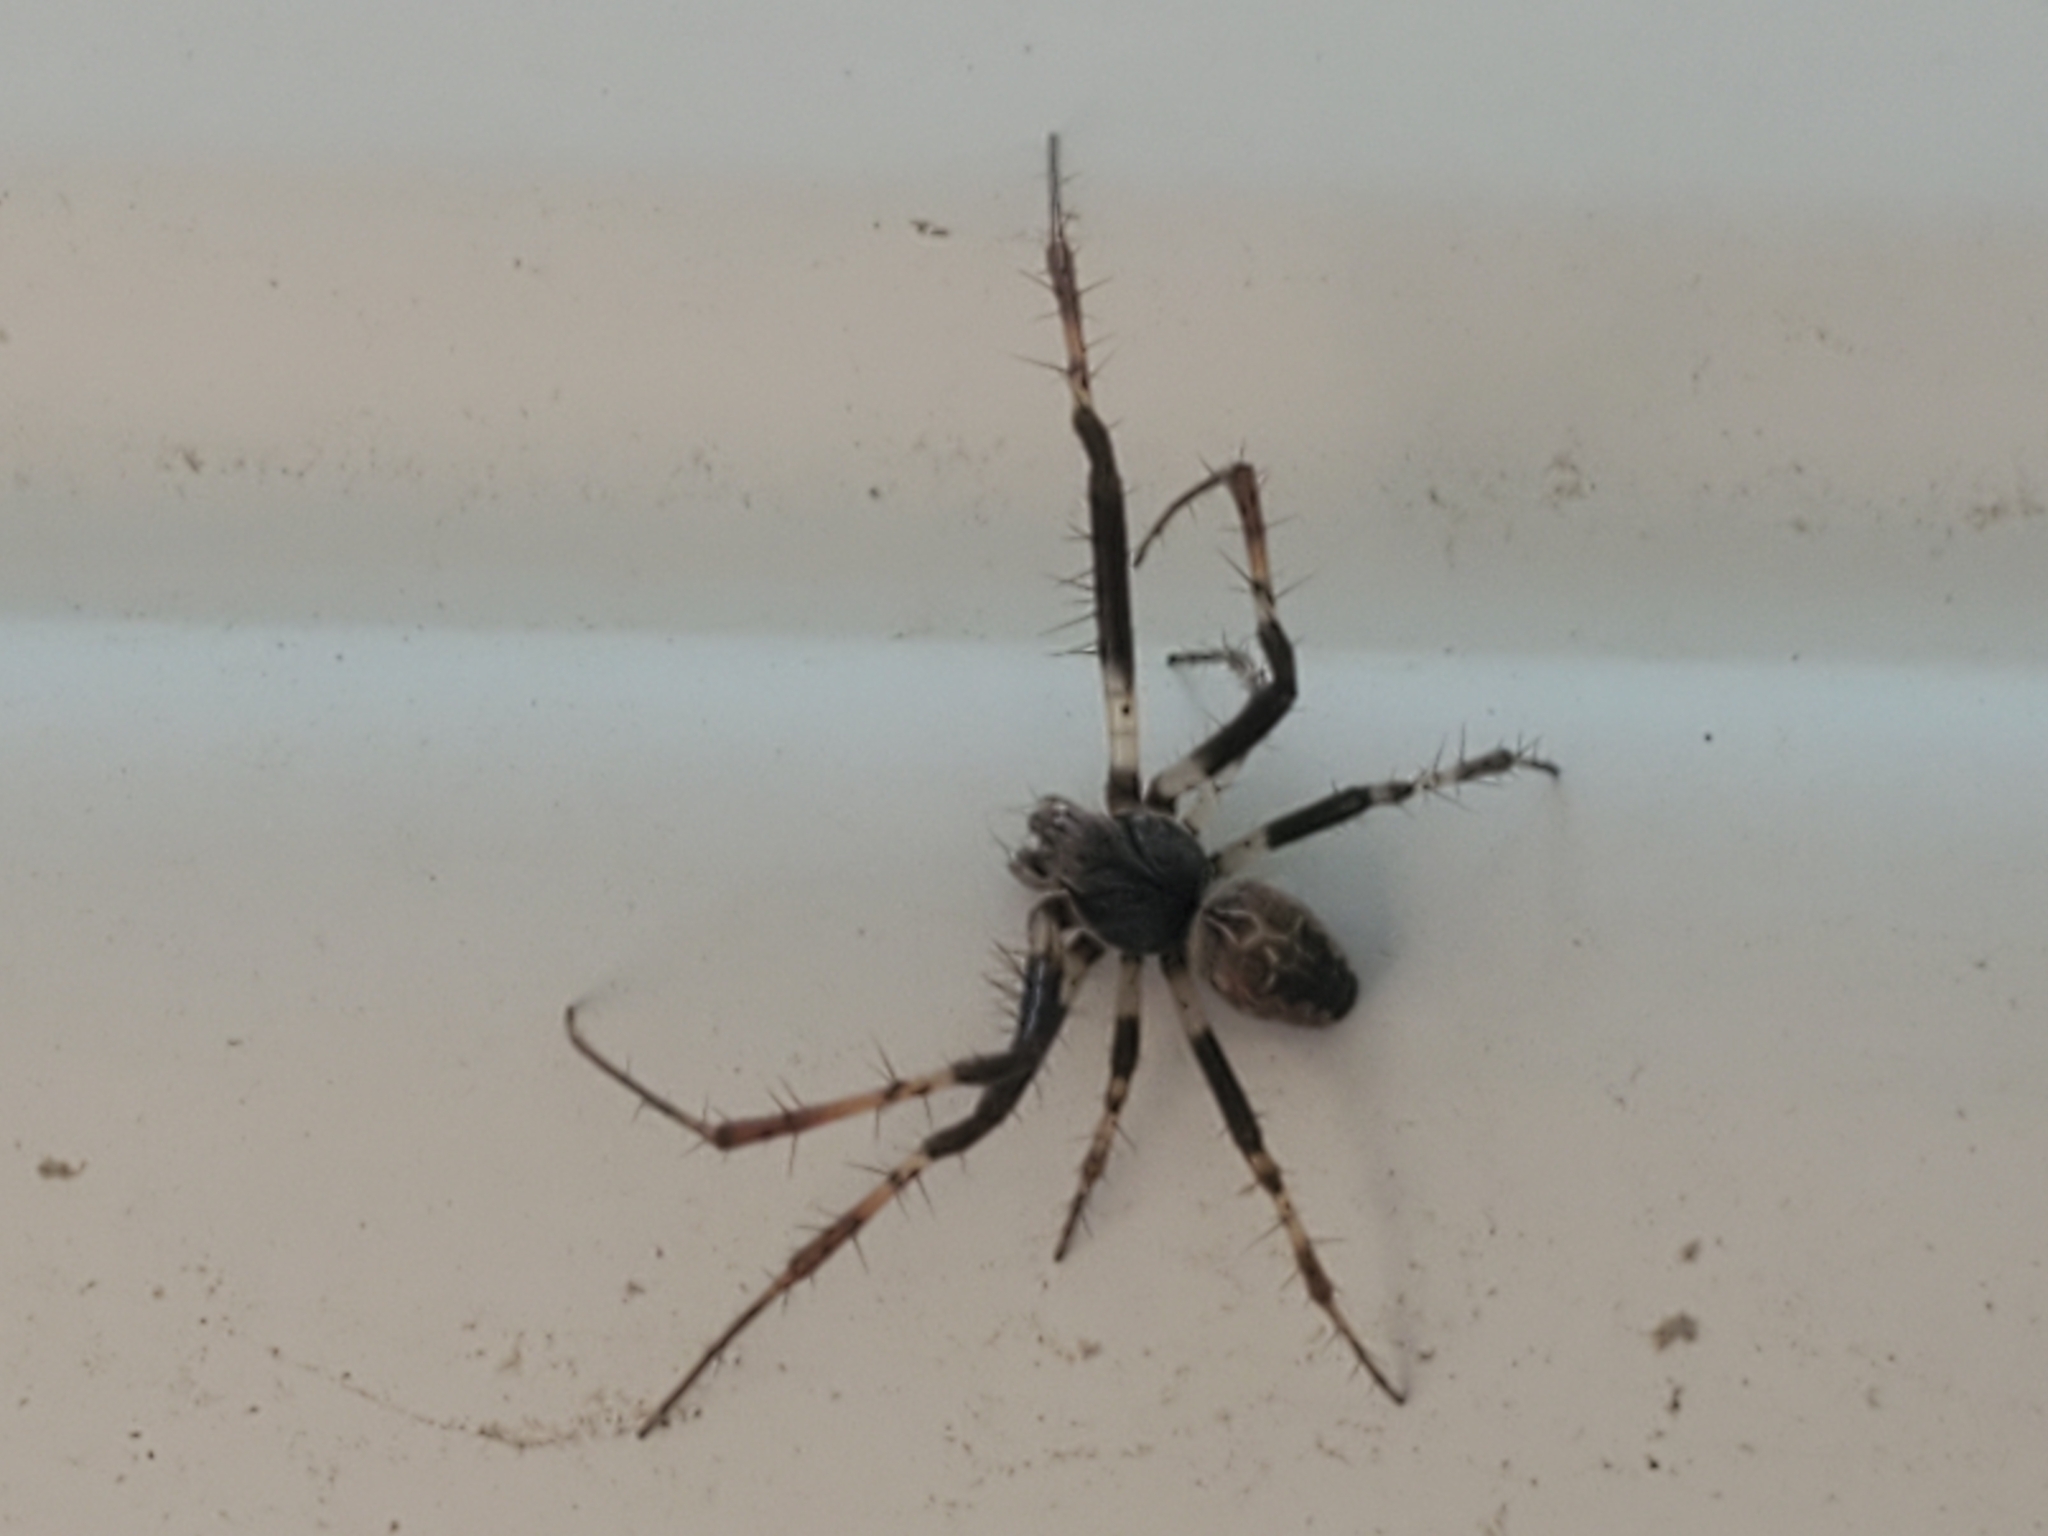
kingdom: Animalia
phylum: Arthropoda
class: Arachnida
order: Araneae
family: Araneidae
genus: Larinioides
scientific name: Larinioides sclopetarius
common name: Bridge orbweaver
